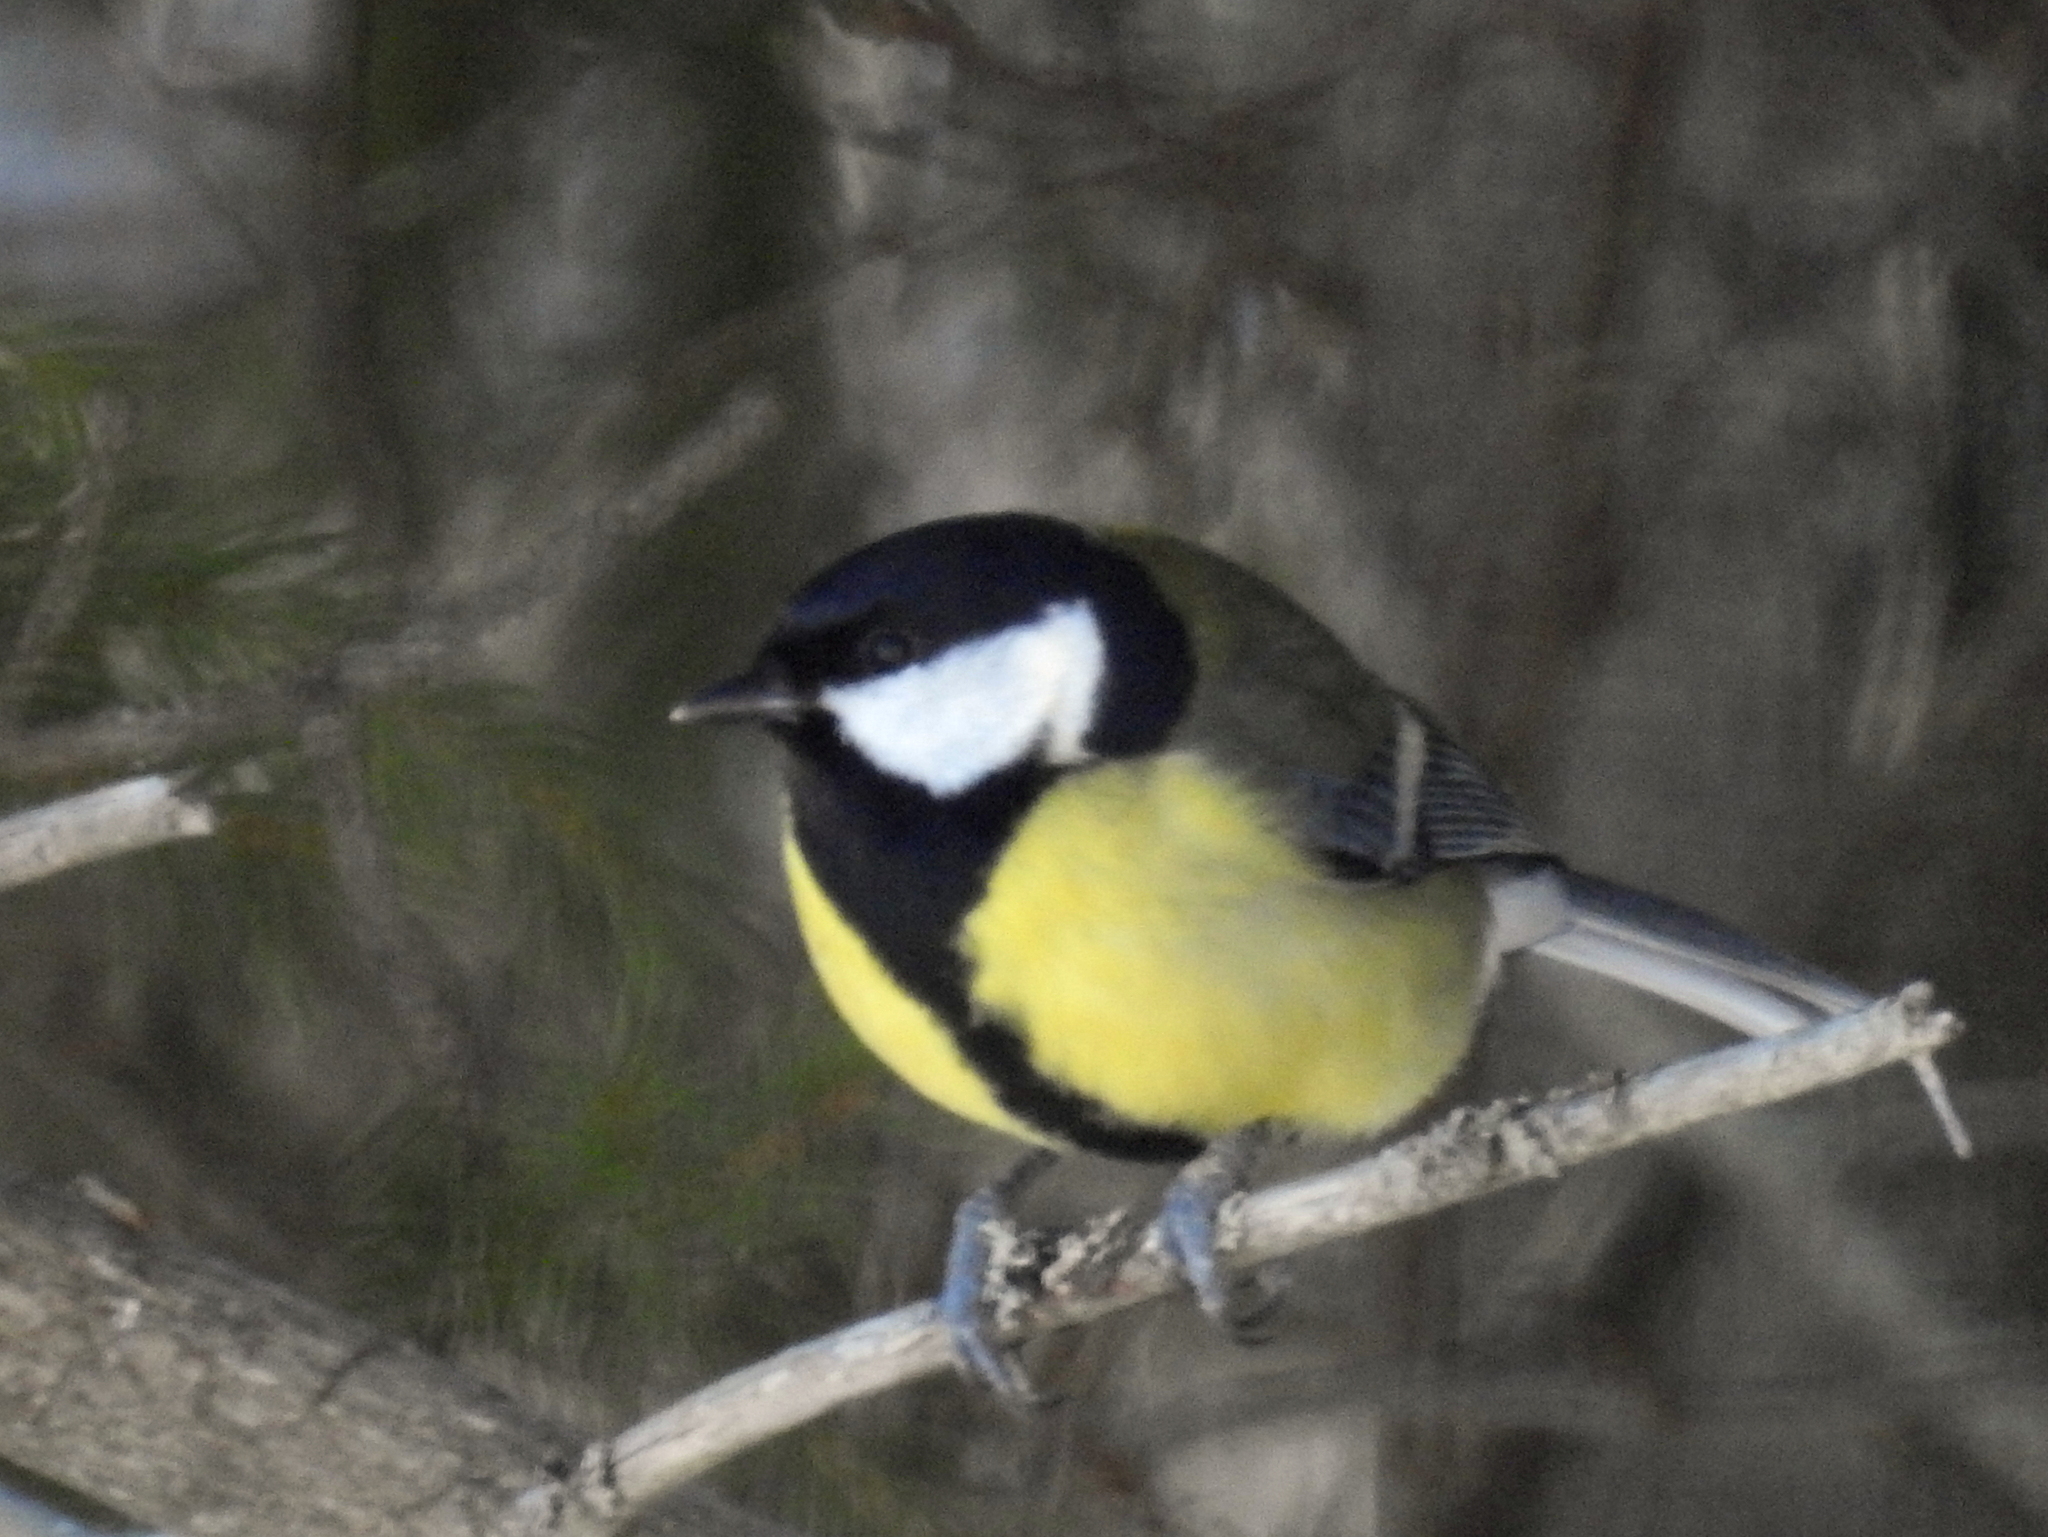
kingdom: Animalia
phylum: Chordata
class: Aves
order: Passeriformes
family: Paridae
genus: Parus
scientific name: Parus major
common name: Great tit
